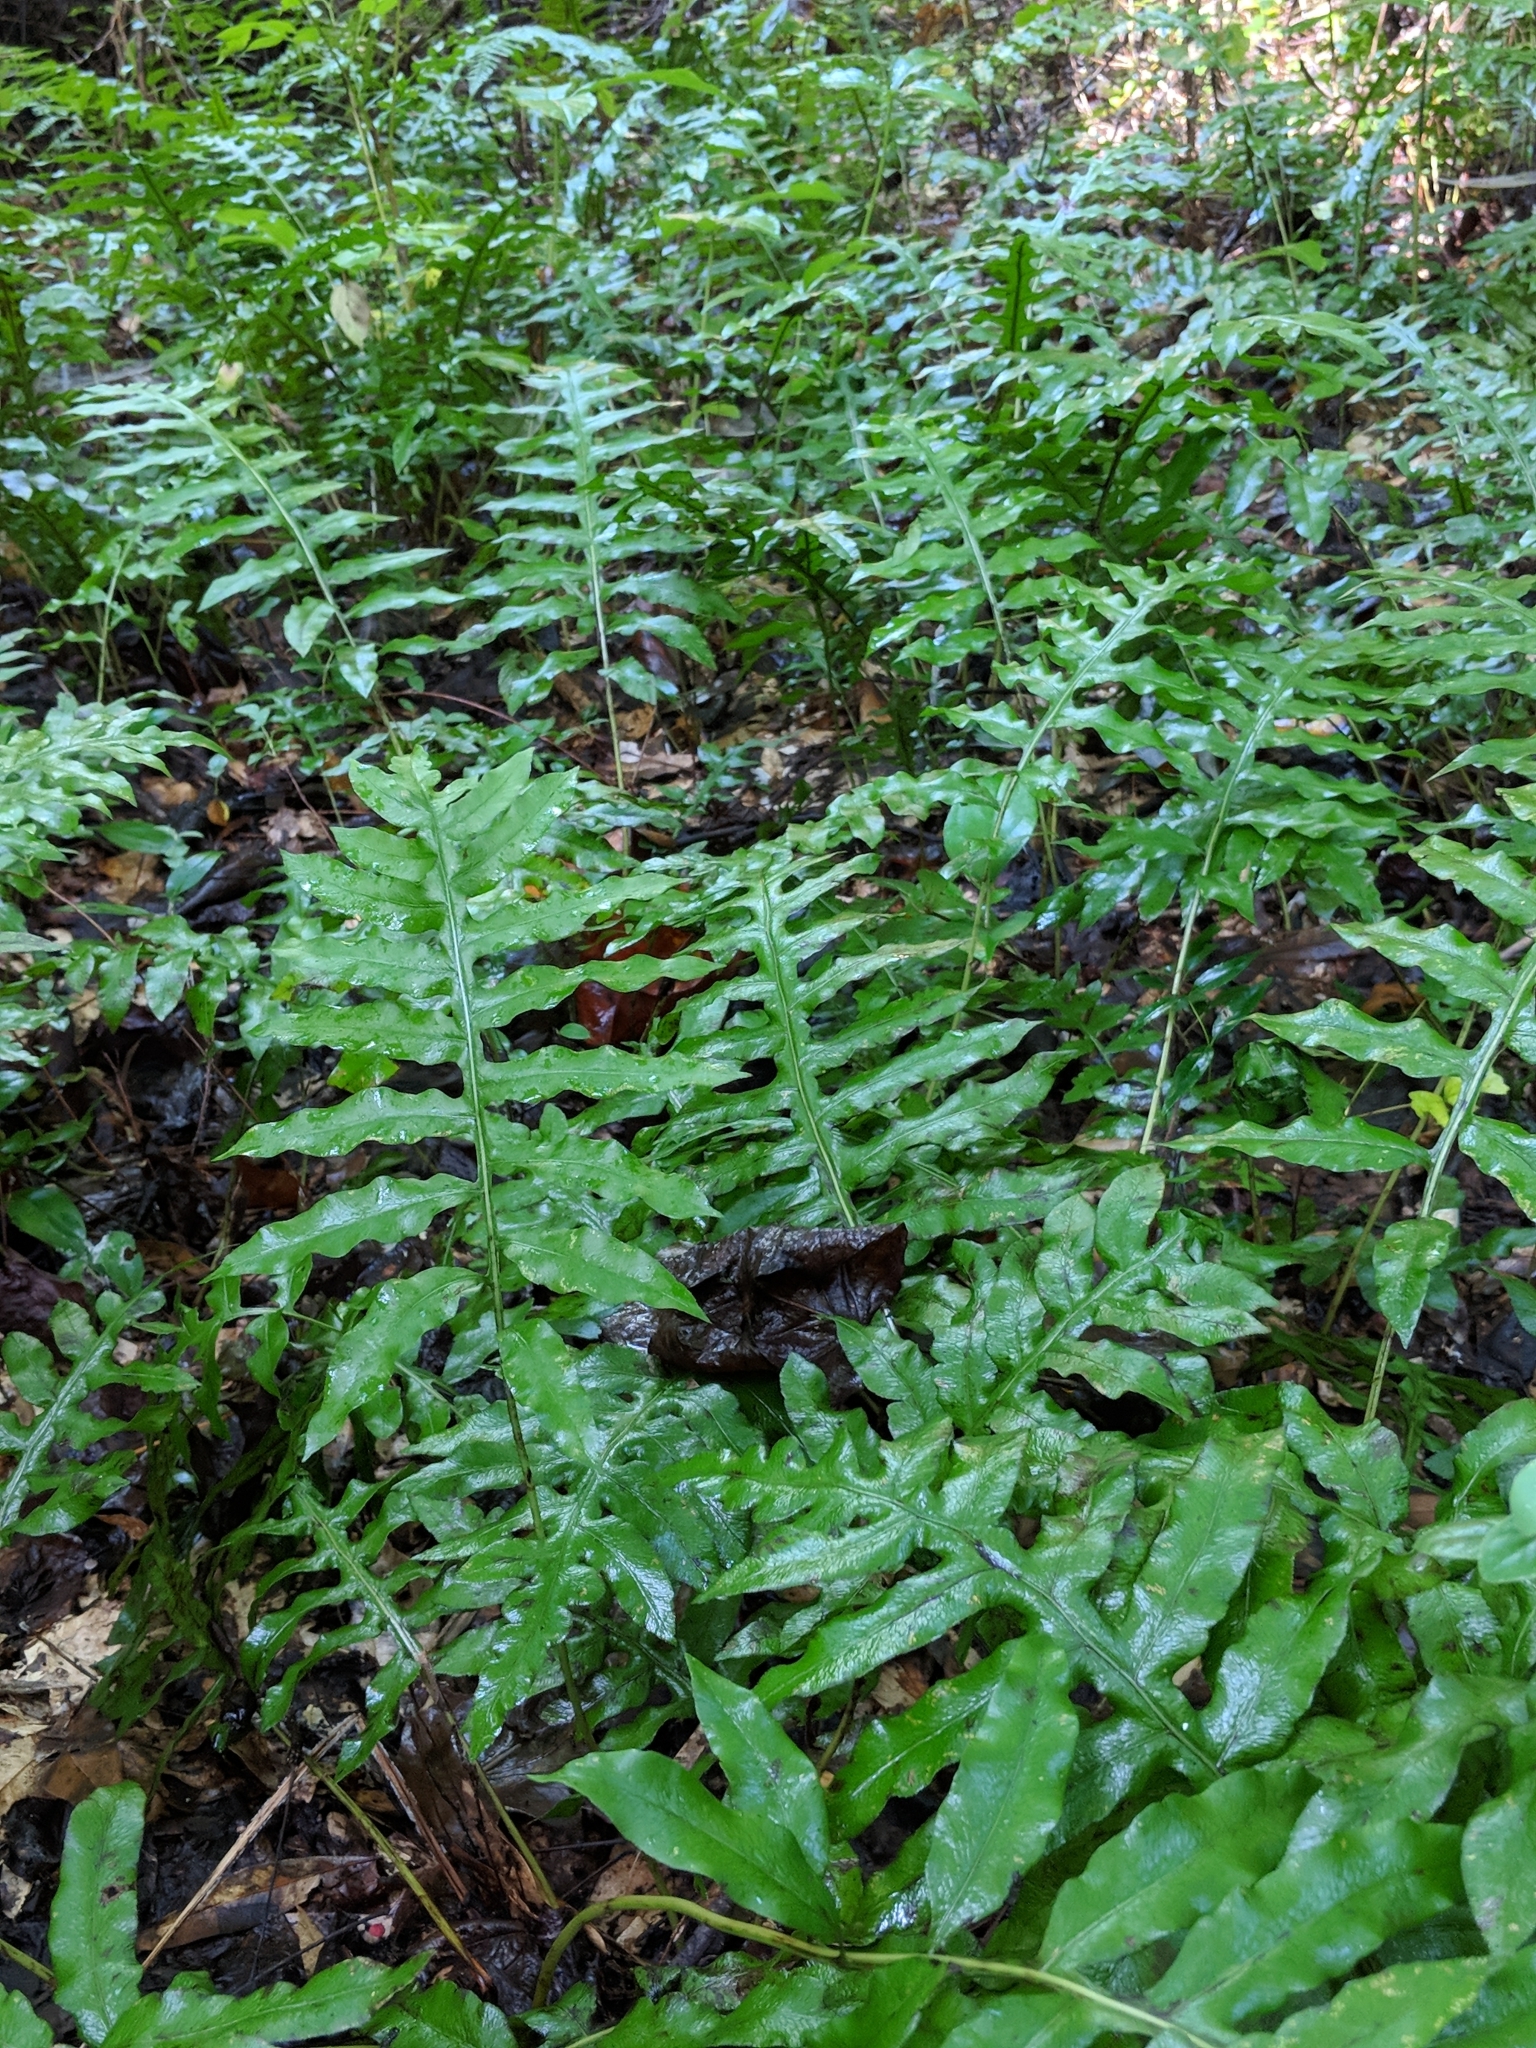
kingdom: Plantae
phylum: Tracheophyta
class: Polypodiopsida
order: Polypodiales
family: Blechnaceae
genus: Lorinseria
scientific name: Lorinseria areolata
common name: Dwarf chain fern
